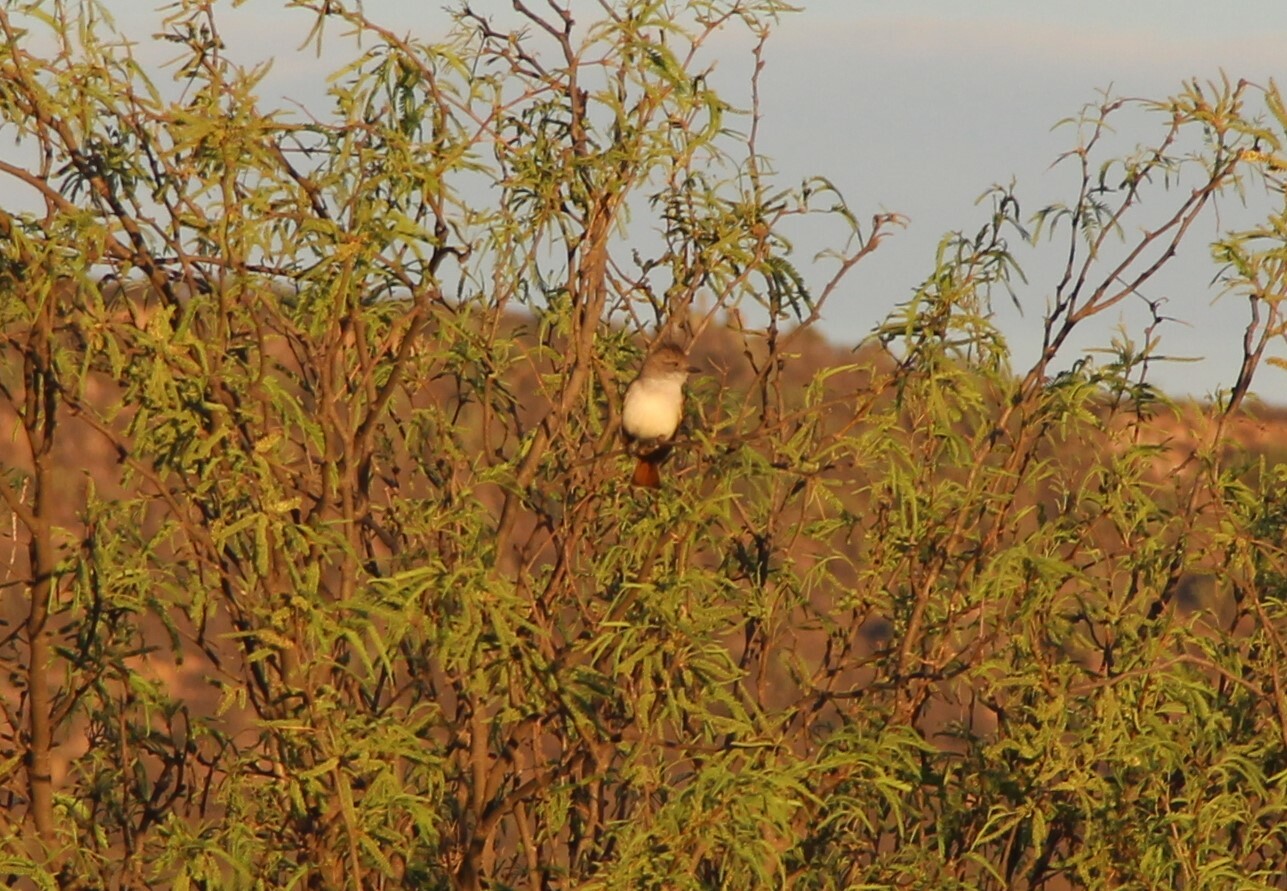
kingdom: Animalia
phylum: Chordata
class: Aves
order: Passeriformes
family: Tyrannidae
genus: Myiarchus
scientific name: Myiarchus cinerascens
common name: Ash-throated flycatcher
